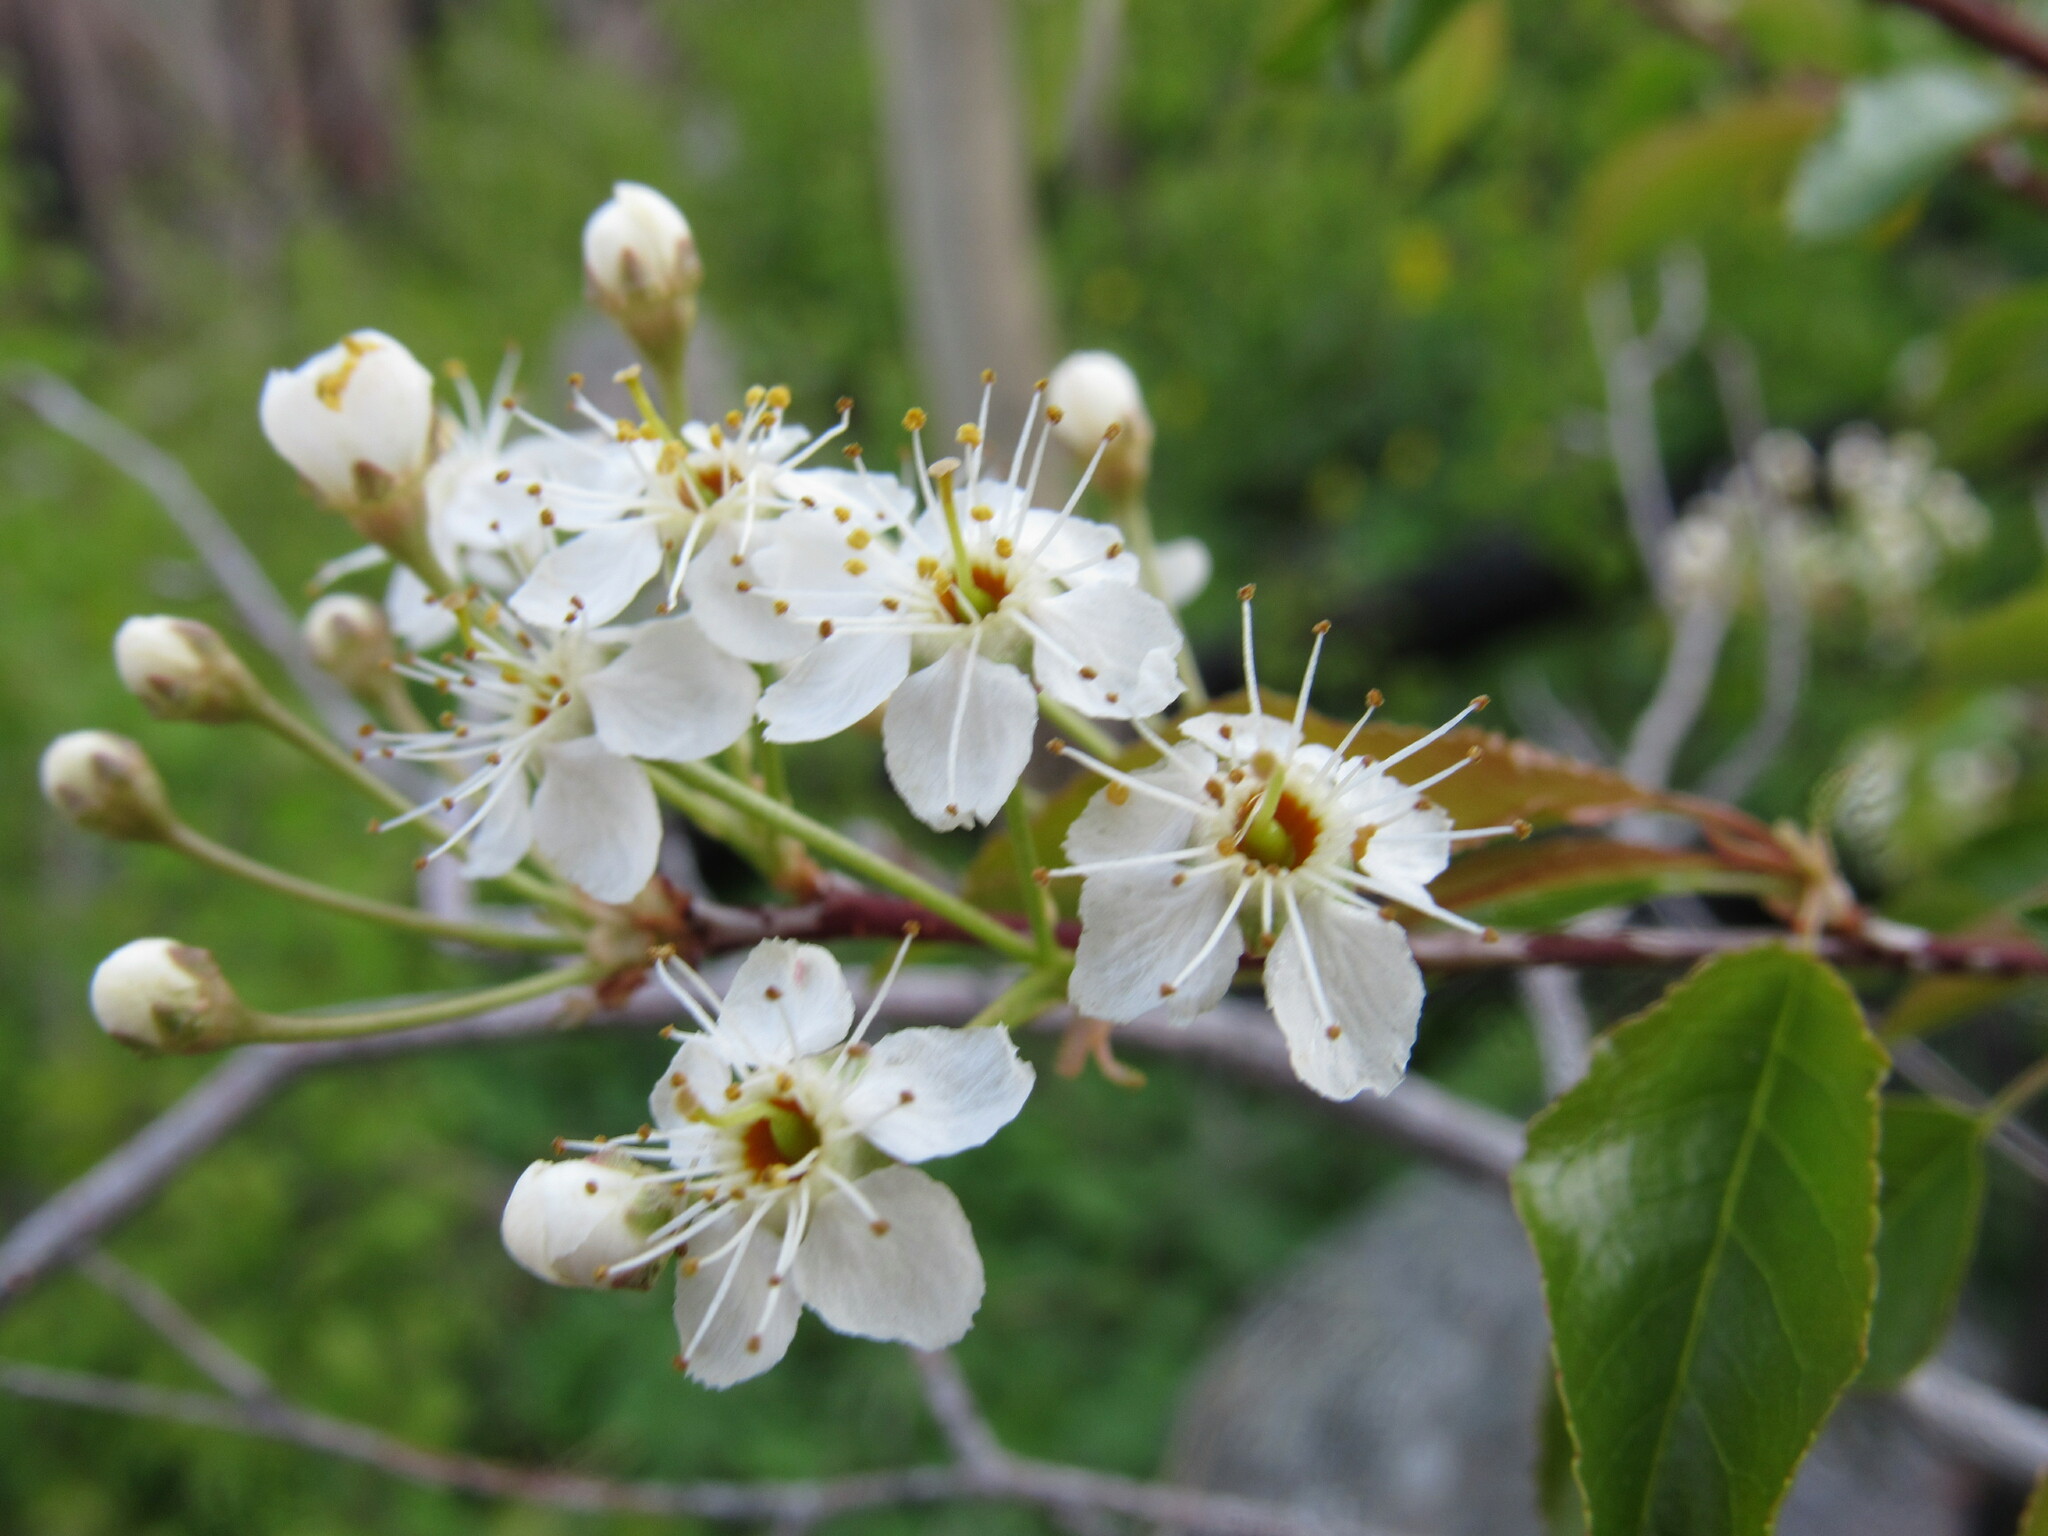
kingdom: Plantae
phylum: Tracheophyta
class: Magnoliopsida
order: Rosales
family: Rosaceae
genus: Prunus
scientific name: Prunus pensylvanica
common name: Pin cherry
